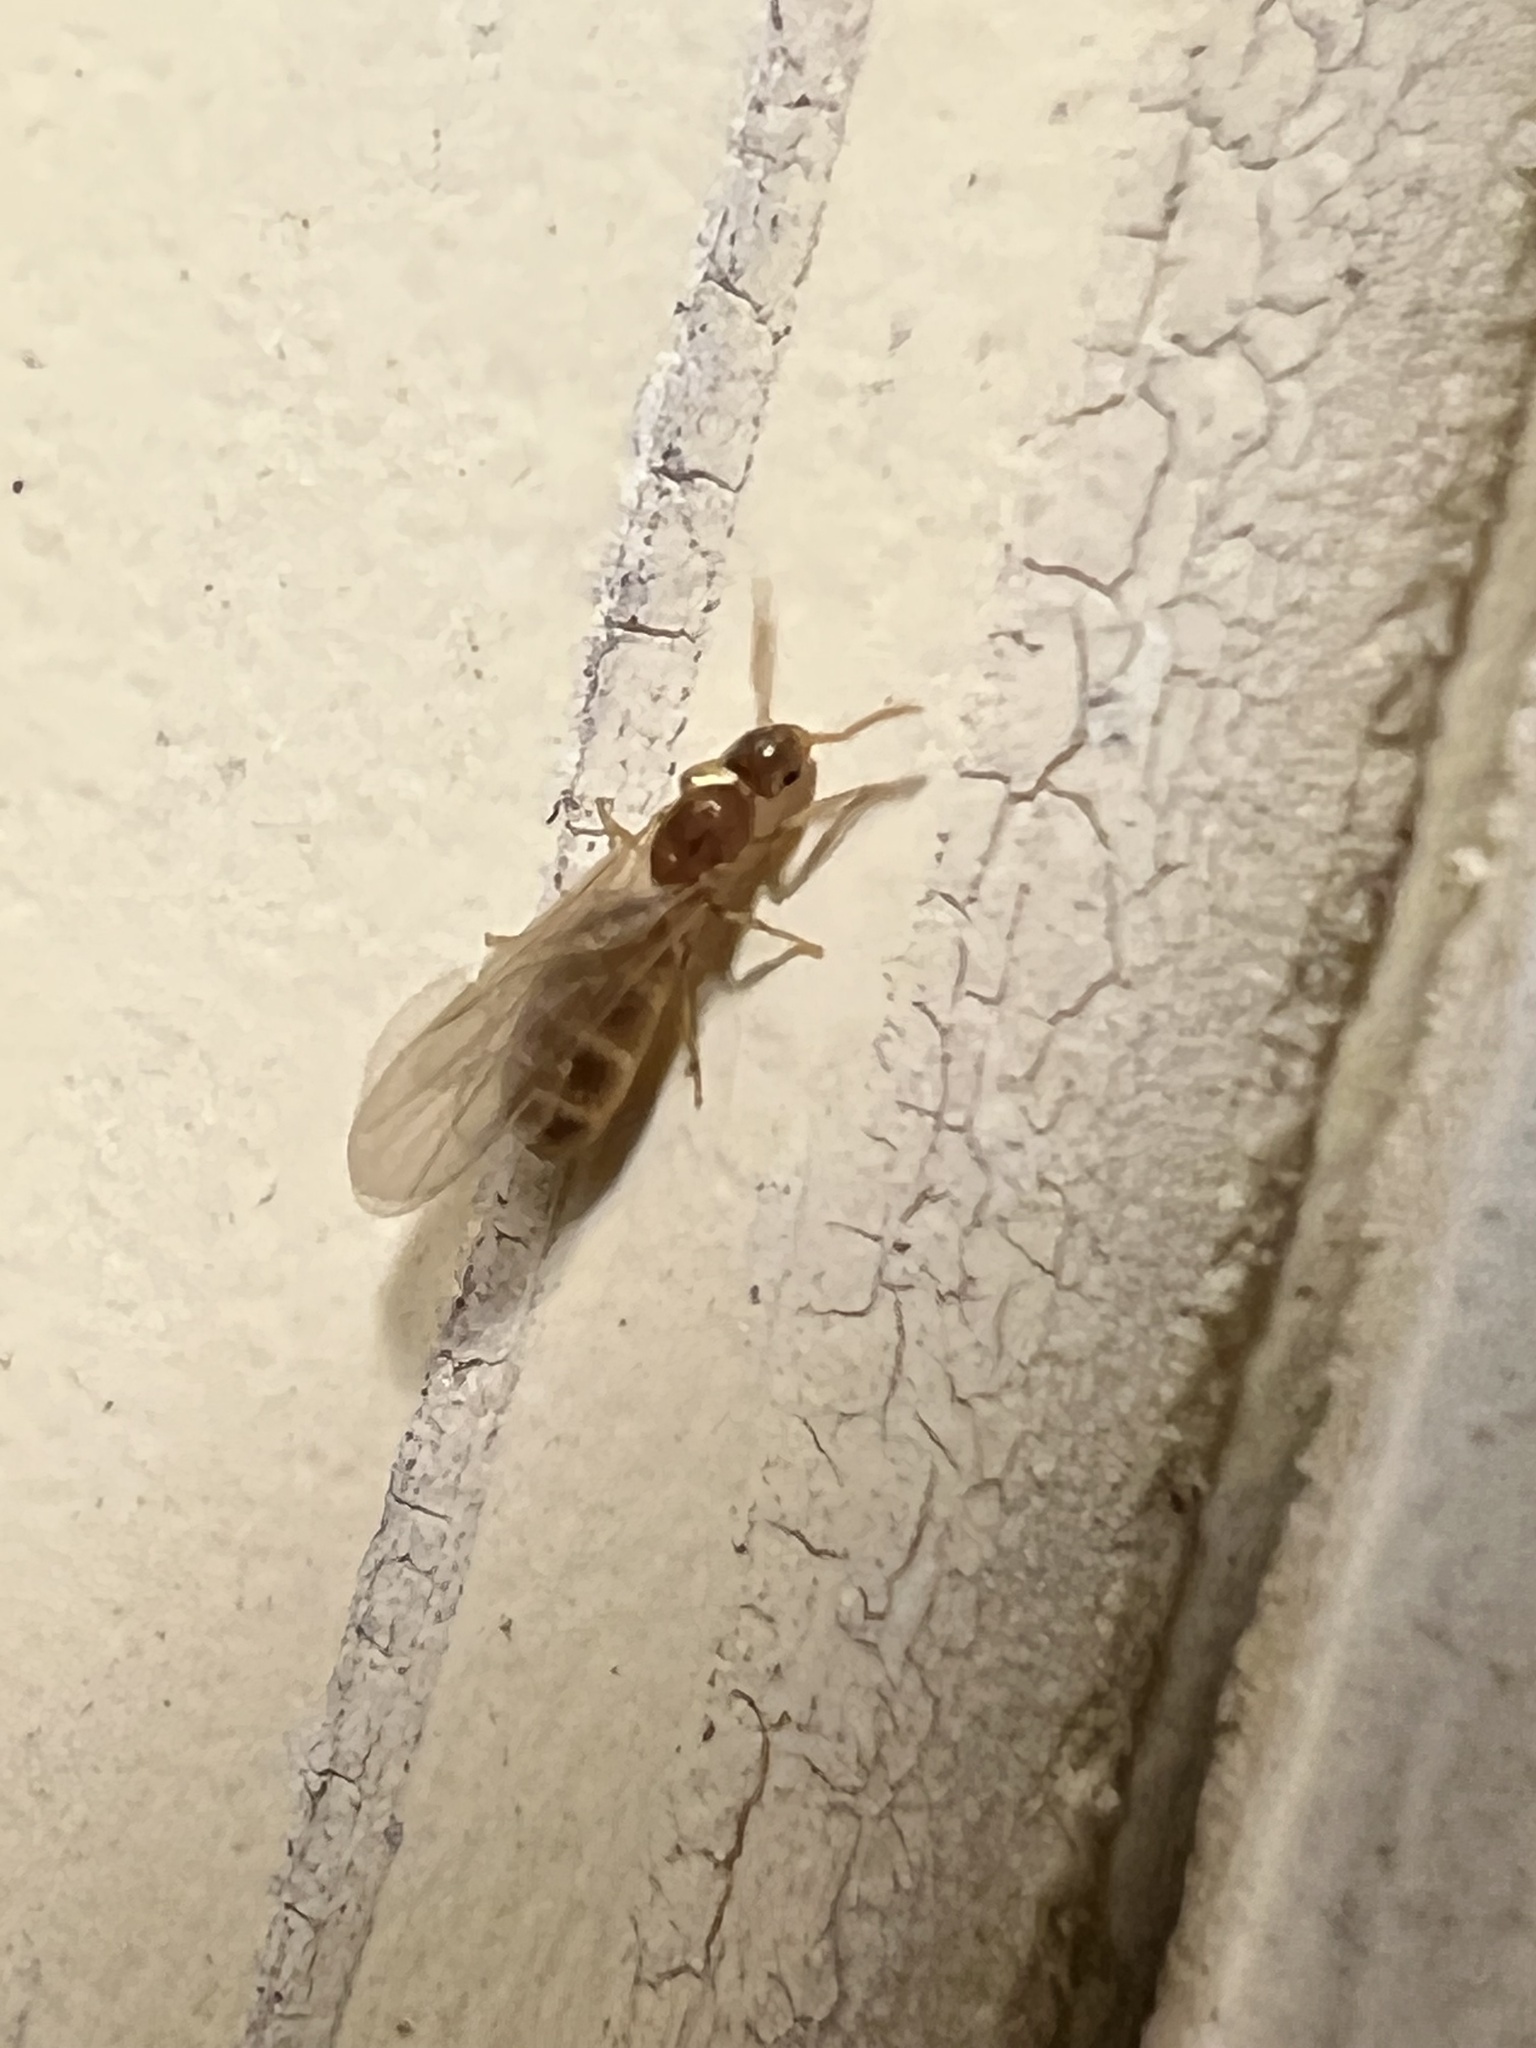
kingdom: Animalia
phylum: Arthropoda
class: Insecta
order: Hymenoptera
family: Formicidae
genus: Brachymyrmex
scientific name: Brachymyrmex depilis
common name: Hairless rover ant
